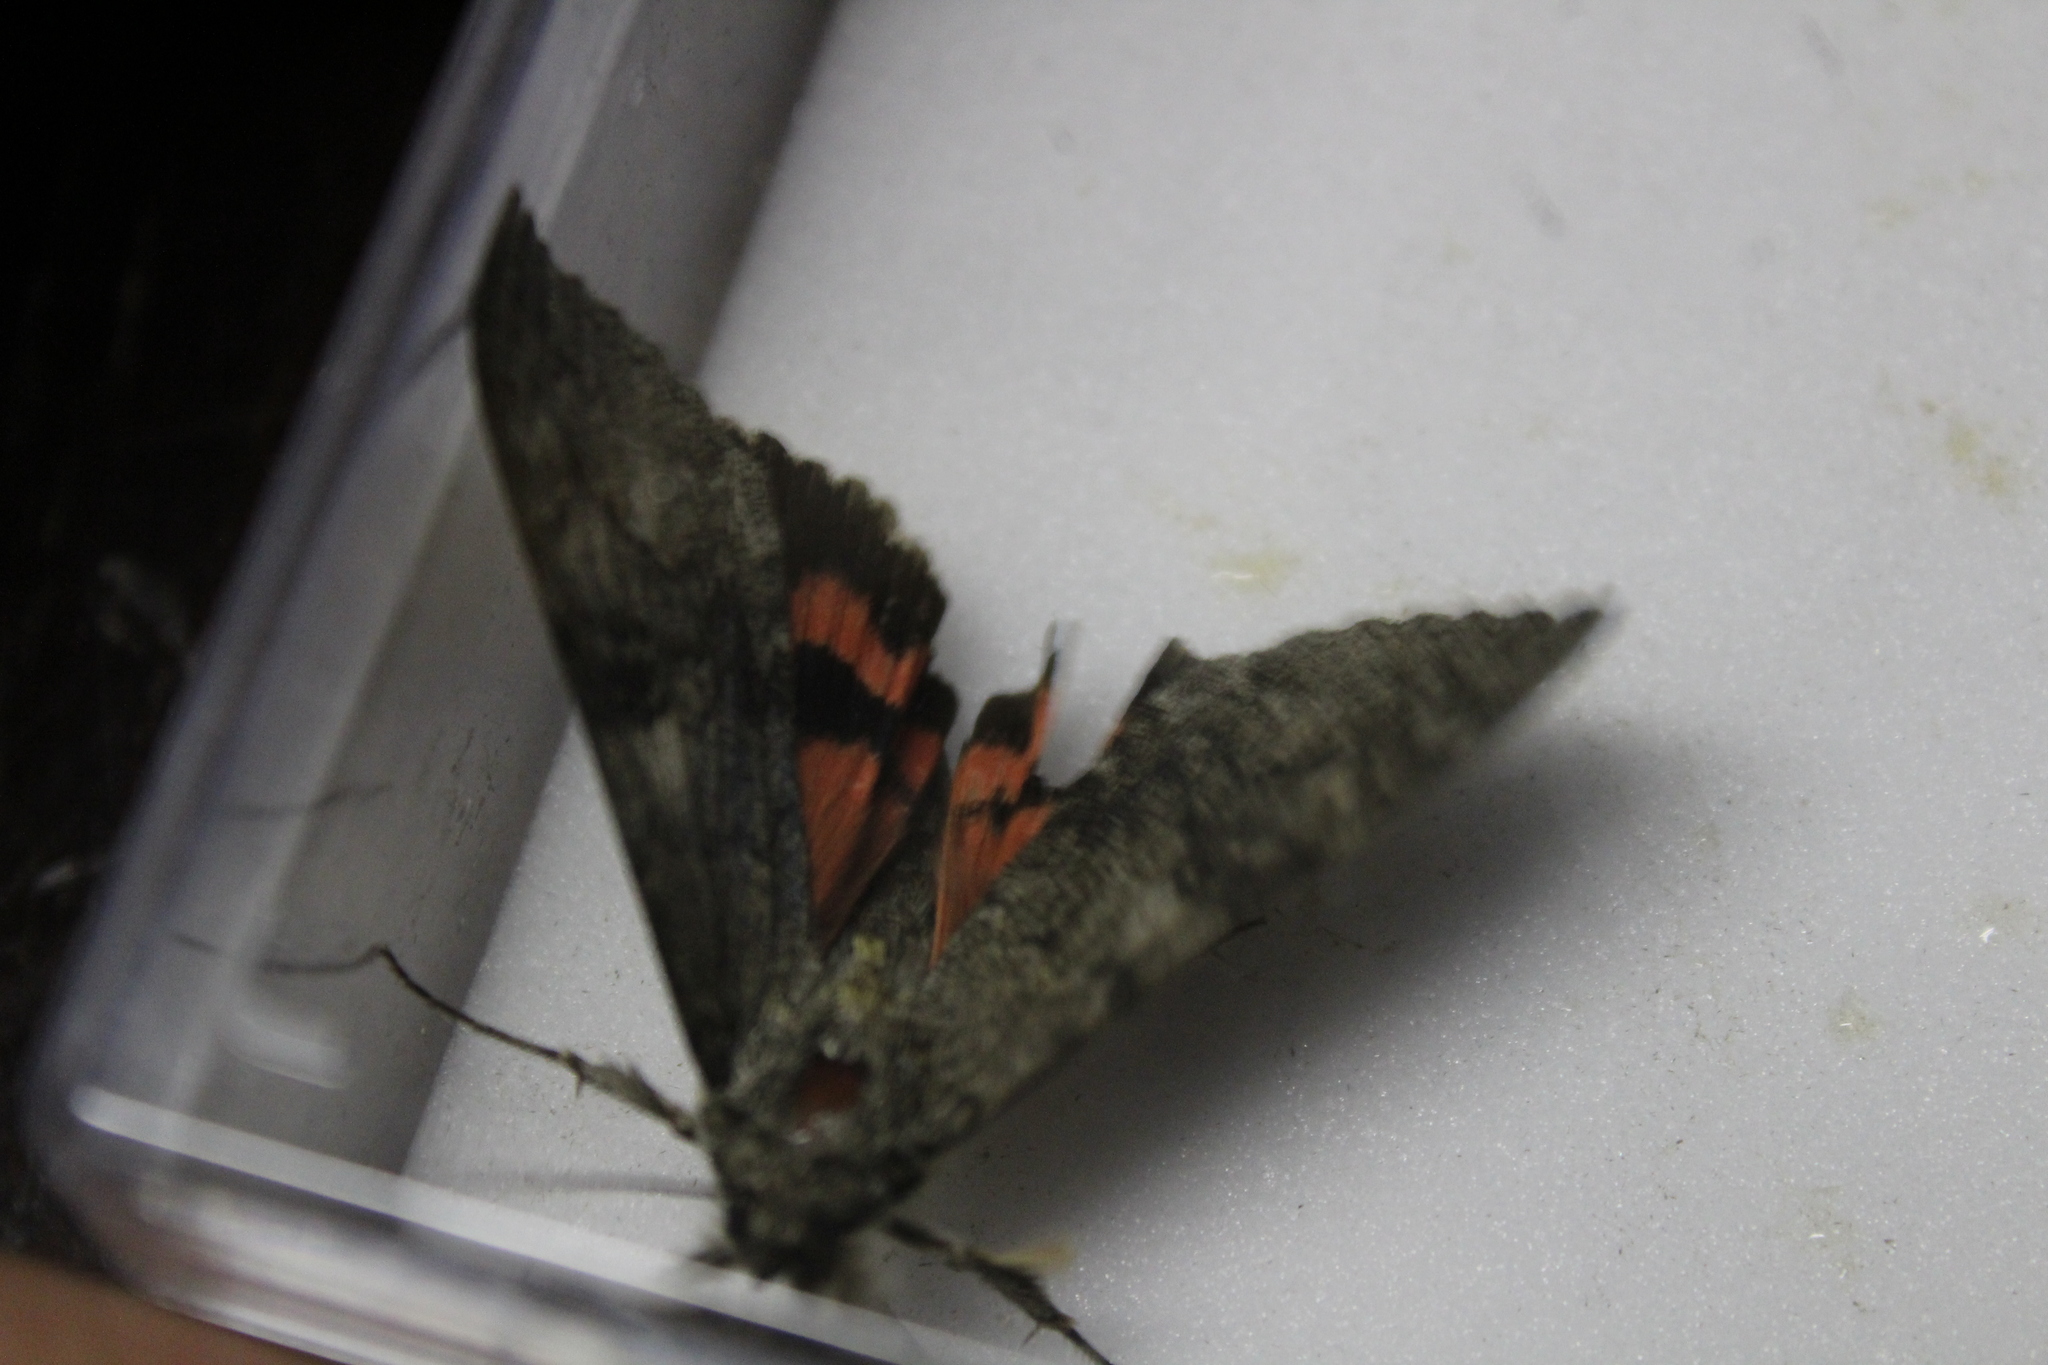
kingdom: Animalia
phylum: Arthropoda
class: Insecta
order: Lepidoptera
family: Erebidae
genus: Catocala
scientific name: Catocala nupta
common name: Red underwing
